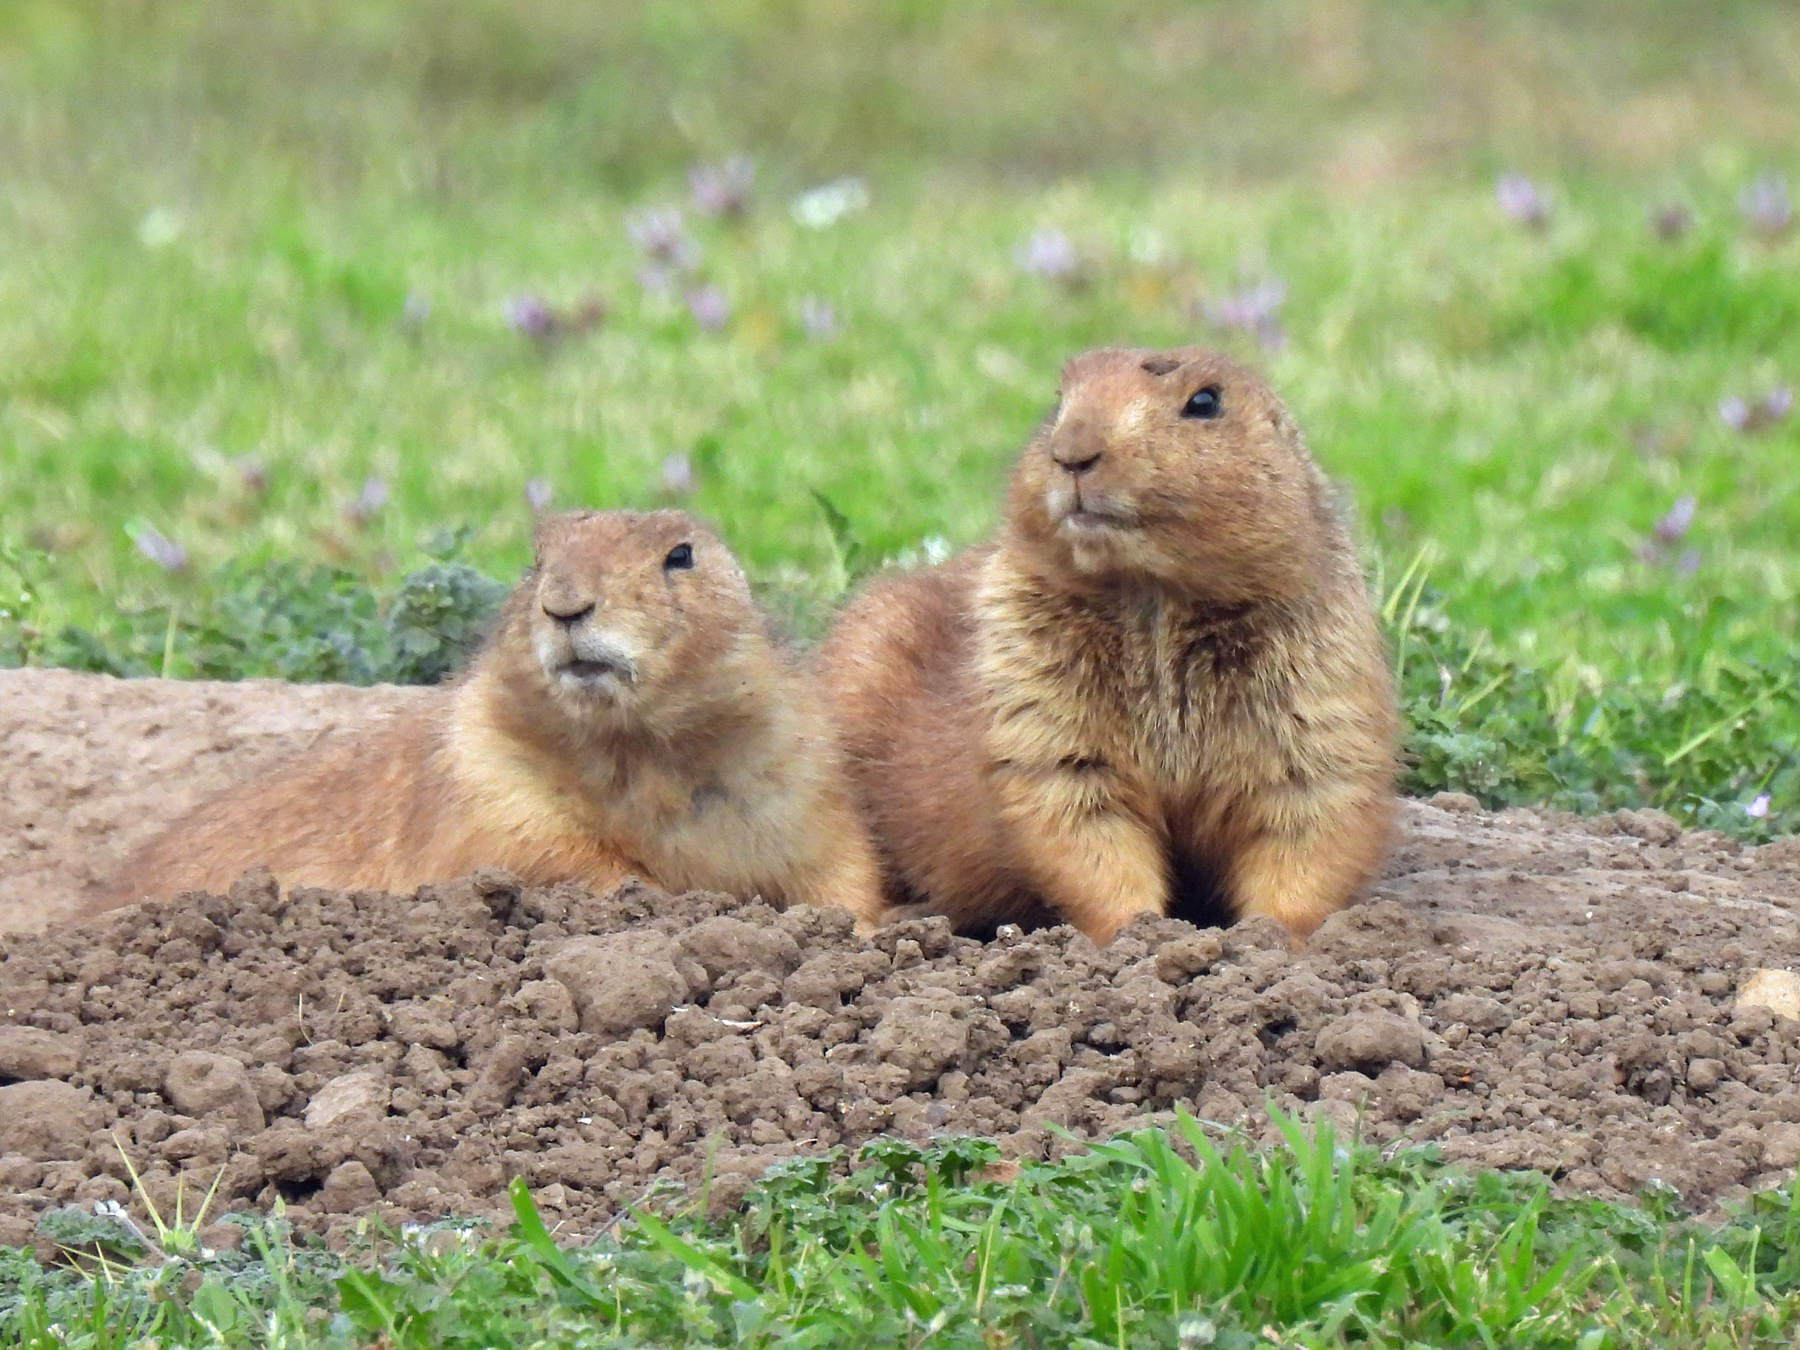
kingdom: Animalia
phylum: Chordata
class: Mammalia
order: Rodentia
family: Sciuridae
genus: Cynomys
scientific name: Cynomys ludovicianus
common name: Black-tailed prairie dog
